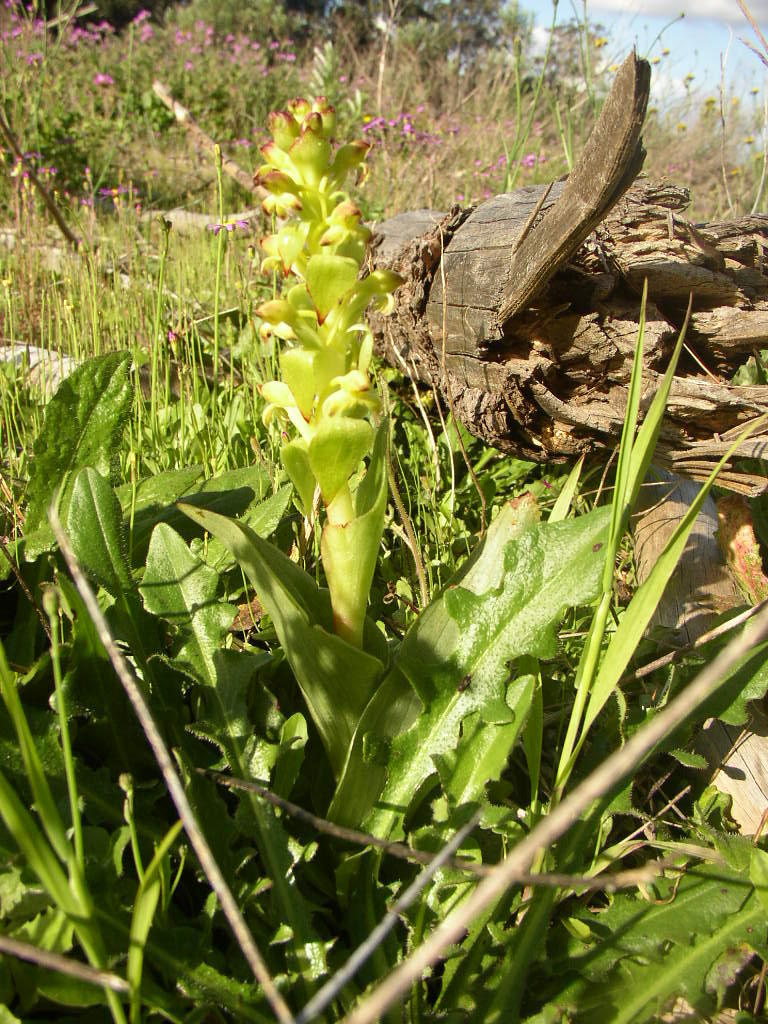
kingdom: Plantae
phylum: Tracheophyta
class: Liliopsida
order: Asparagales
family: Orchidaceae
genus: Satyrium
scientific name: Satyrium odorum
